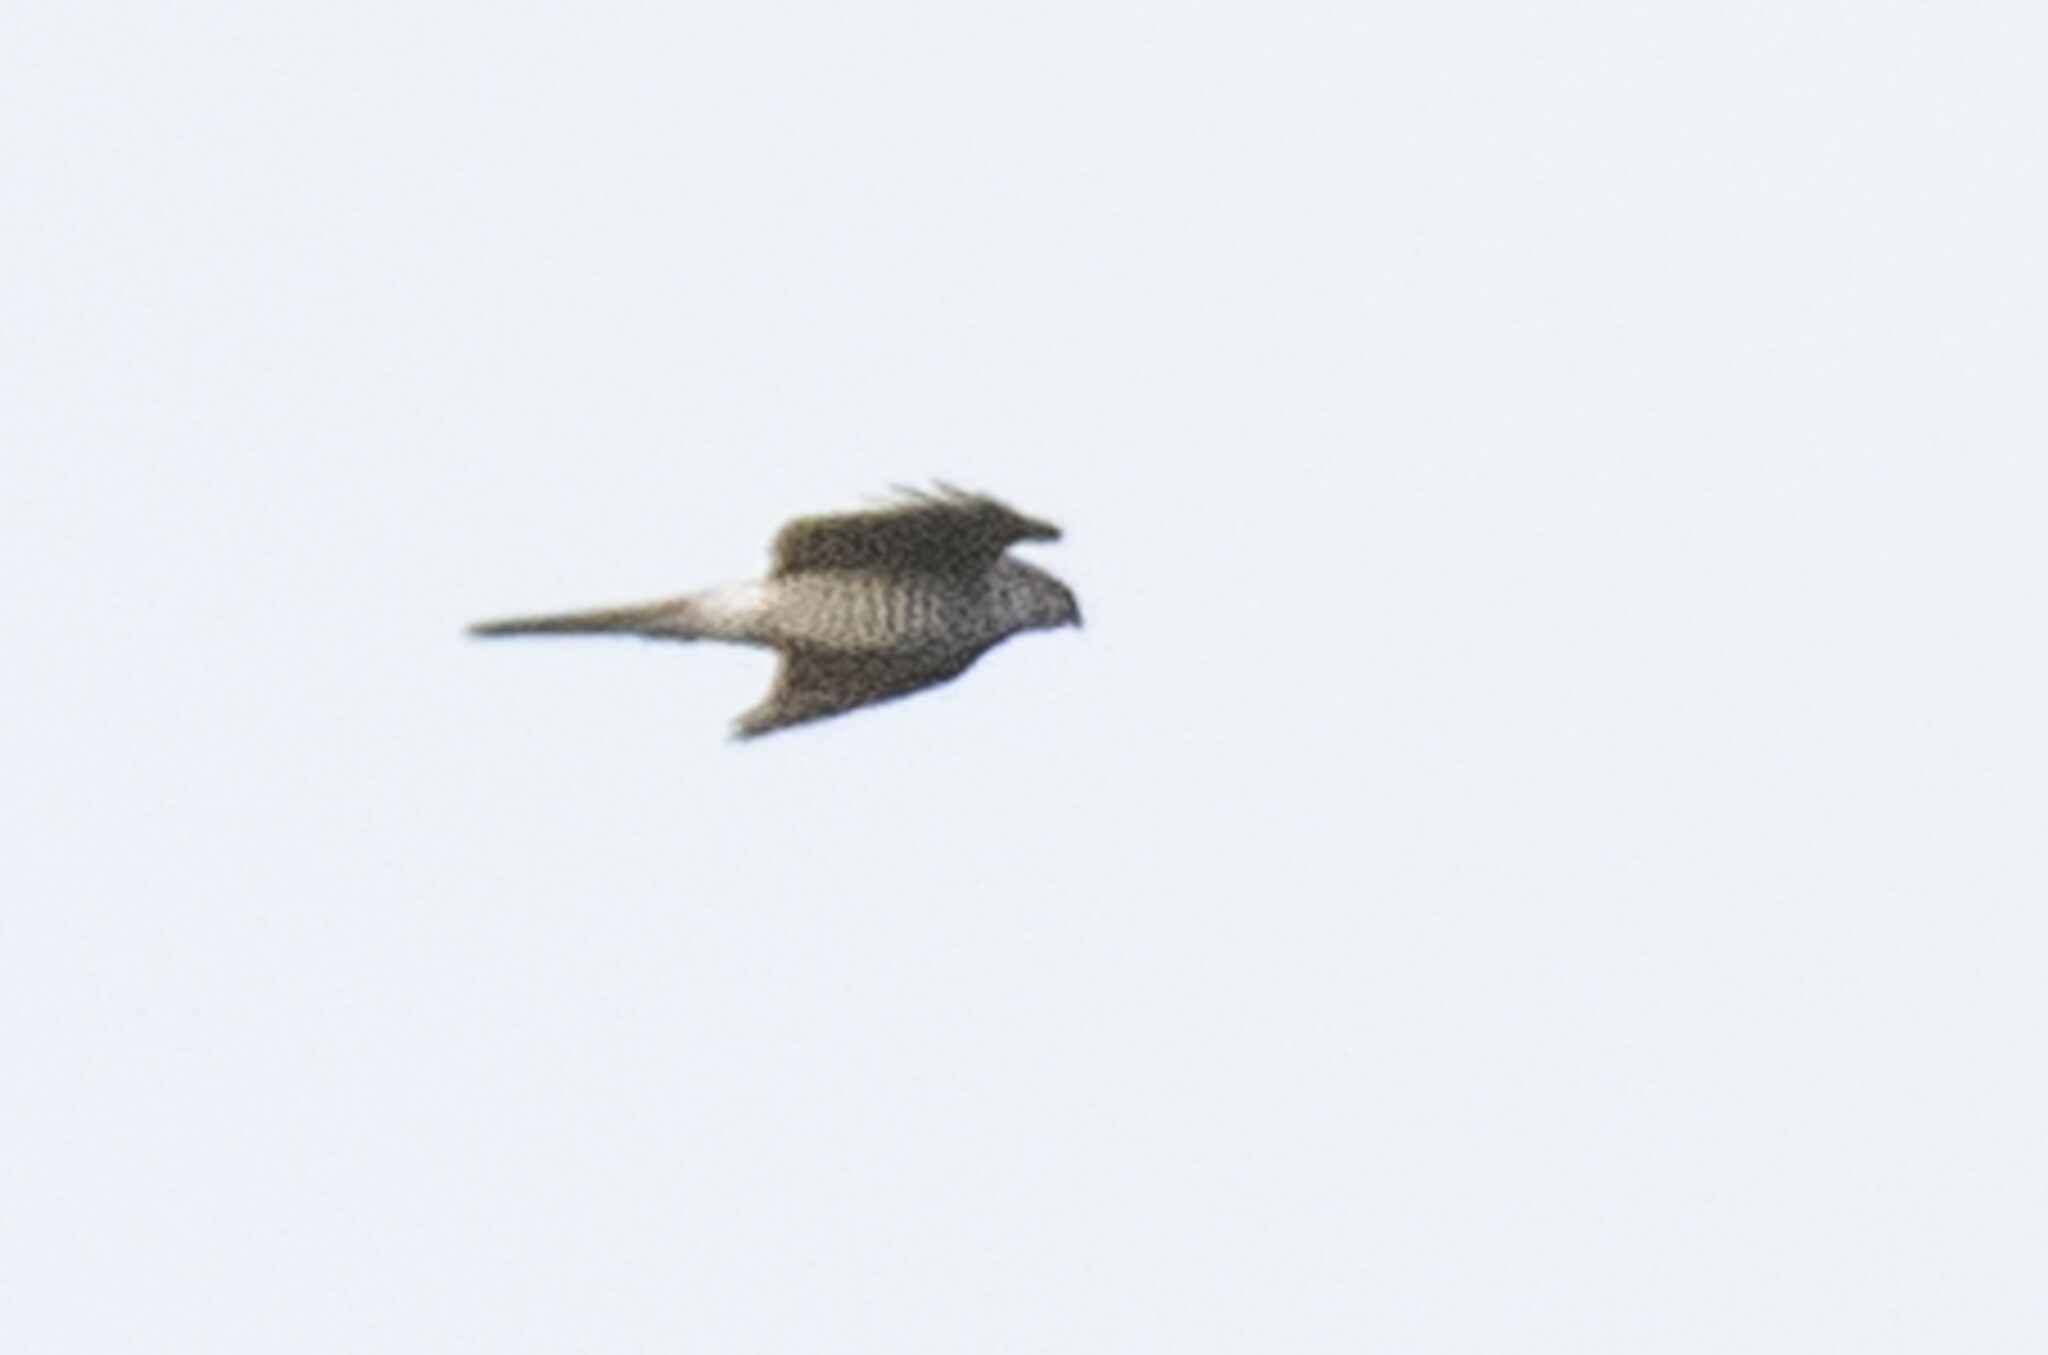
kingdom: Animalia
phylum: Chordata
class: Aves
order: Accipitriformes
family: Accipitridae
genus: Accipiter
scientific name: Accipiter nisus
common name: Eurasian sparrowhawk
